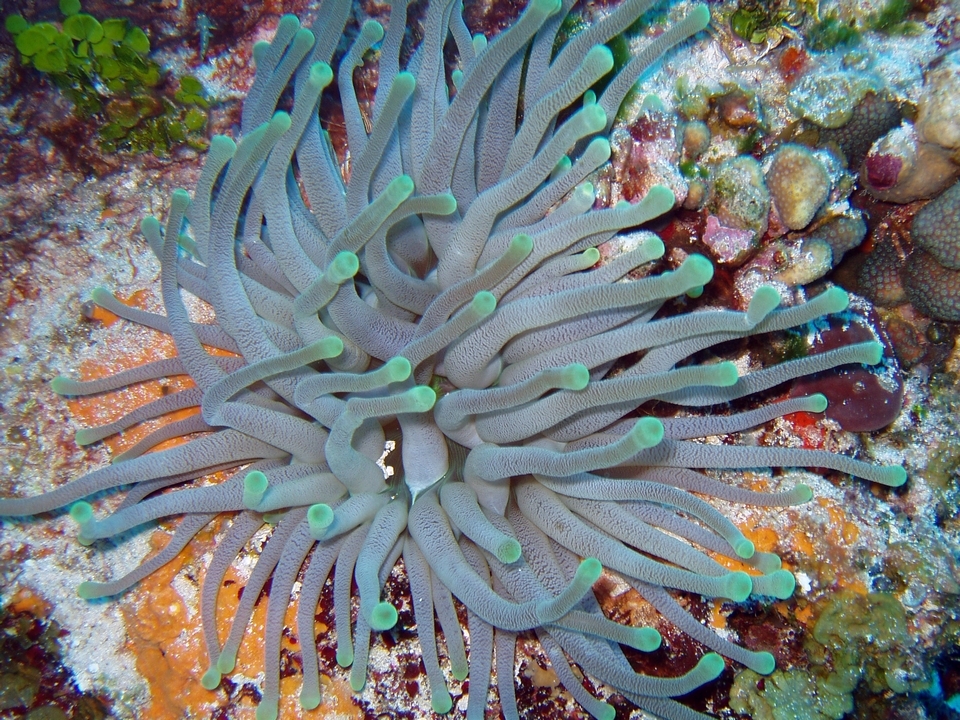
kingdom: Animalia
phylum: Cnidaria
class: Anthozoa
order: Actiniaria
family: Actiniidae
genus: Condylactis
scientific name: Condylactis gigantea
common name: Giant caribbean anemone
